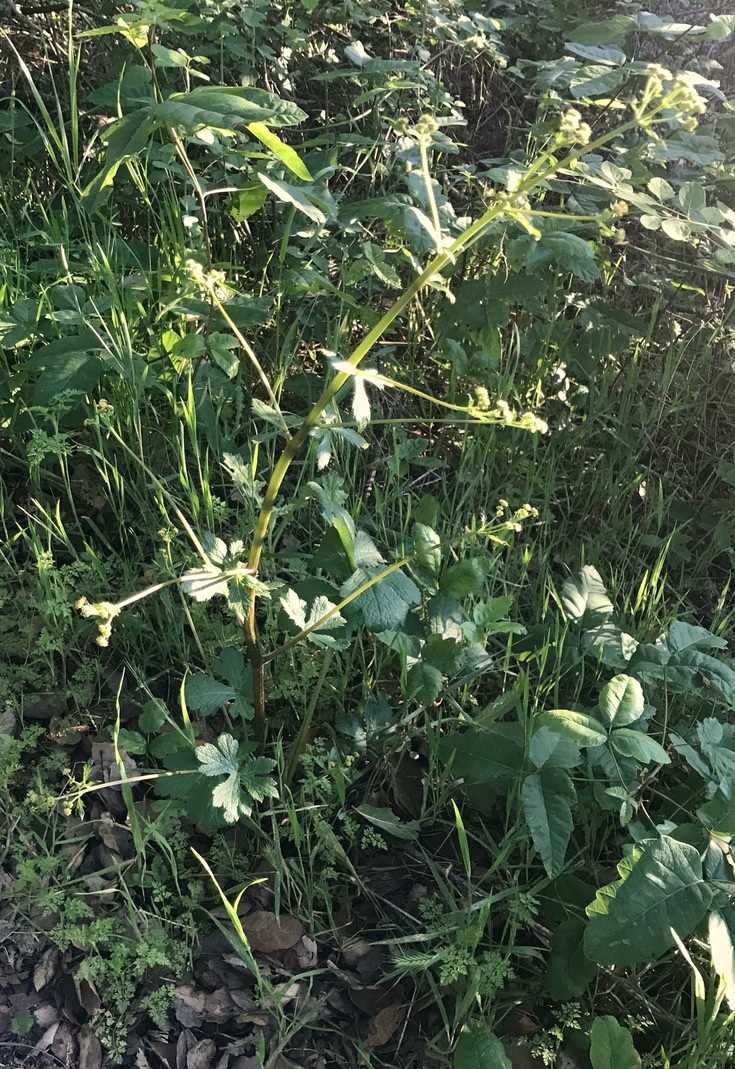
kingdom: Plantae
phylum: Tracheophyta
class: Magnoliopsida
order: Apiales
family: Apiaceae
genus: Sanicula
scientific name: Sanicula crassicaulis
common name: Western snakeroot
